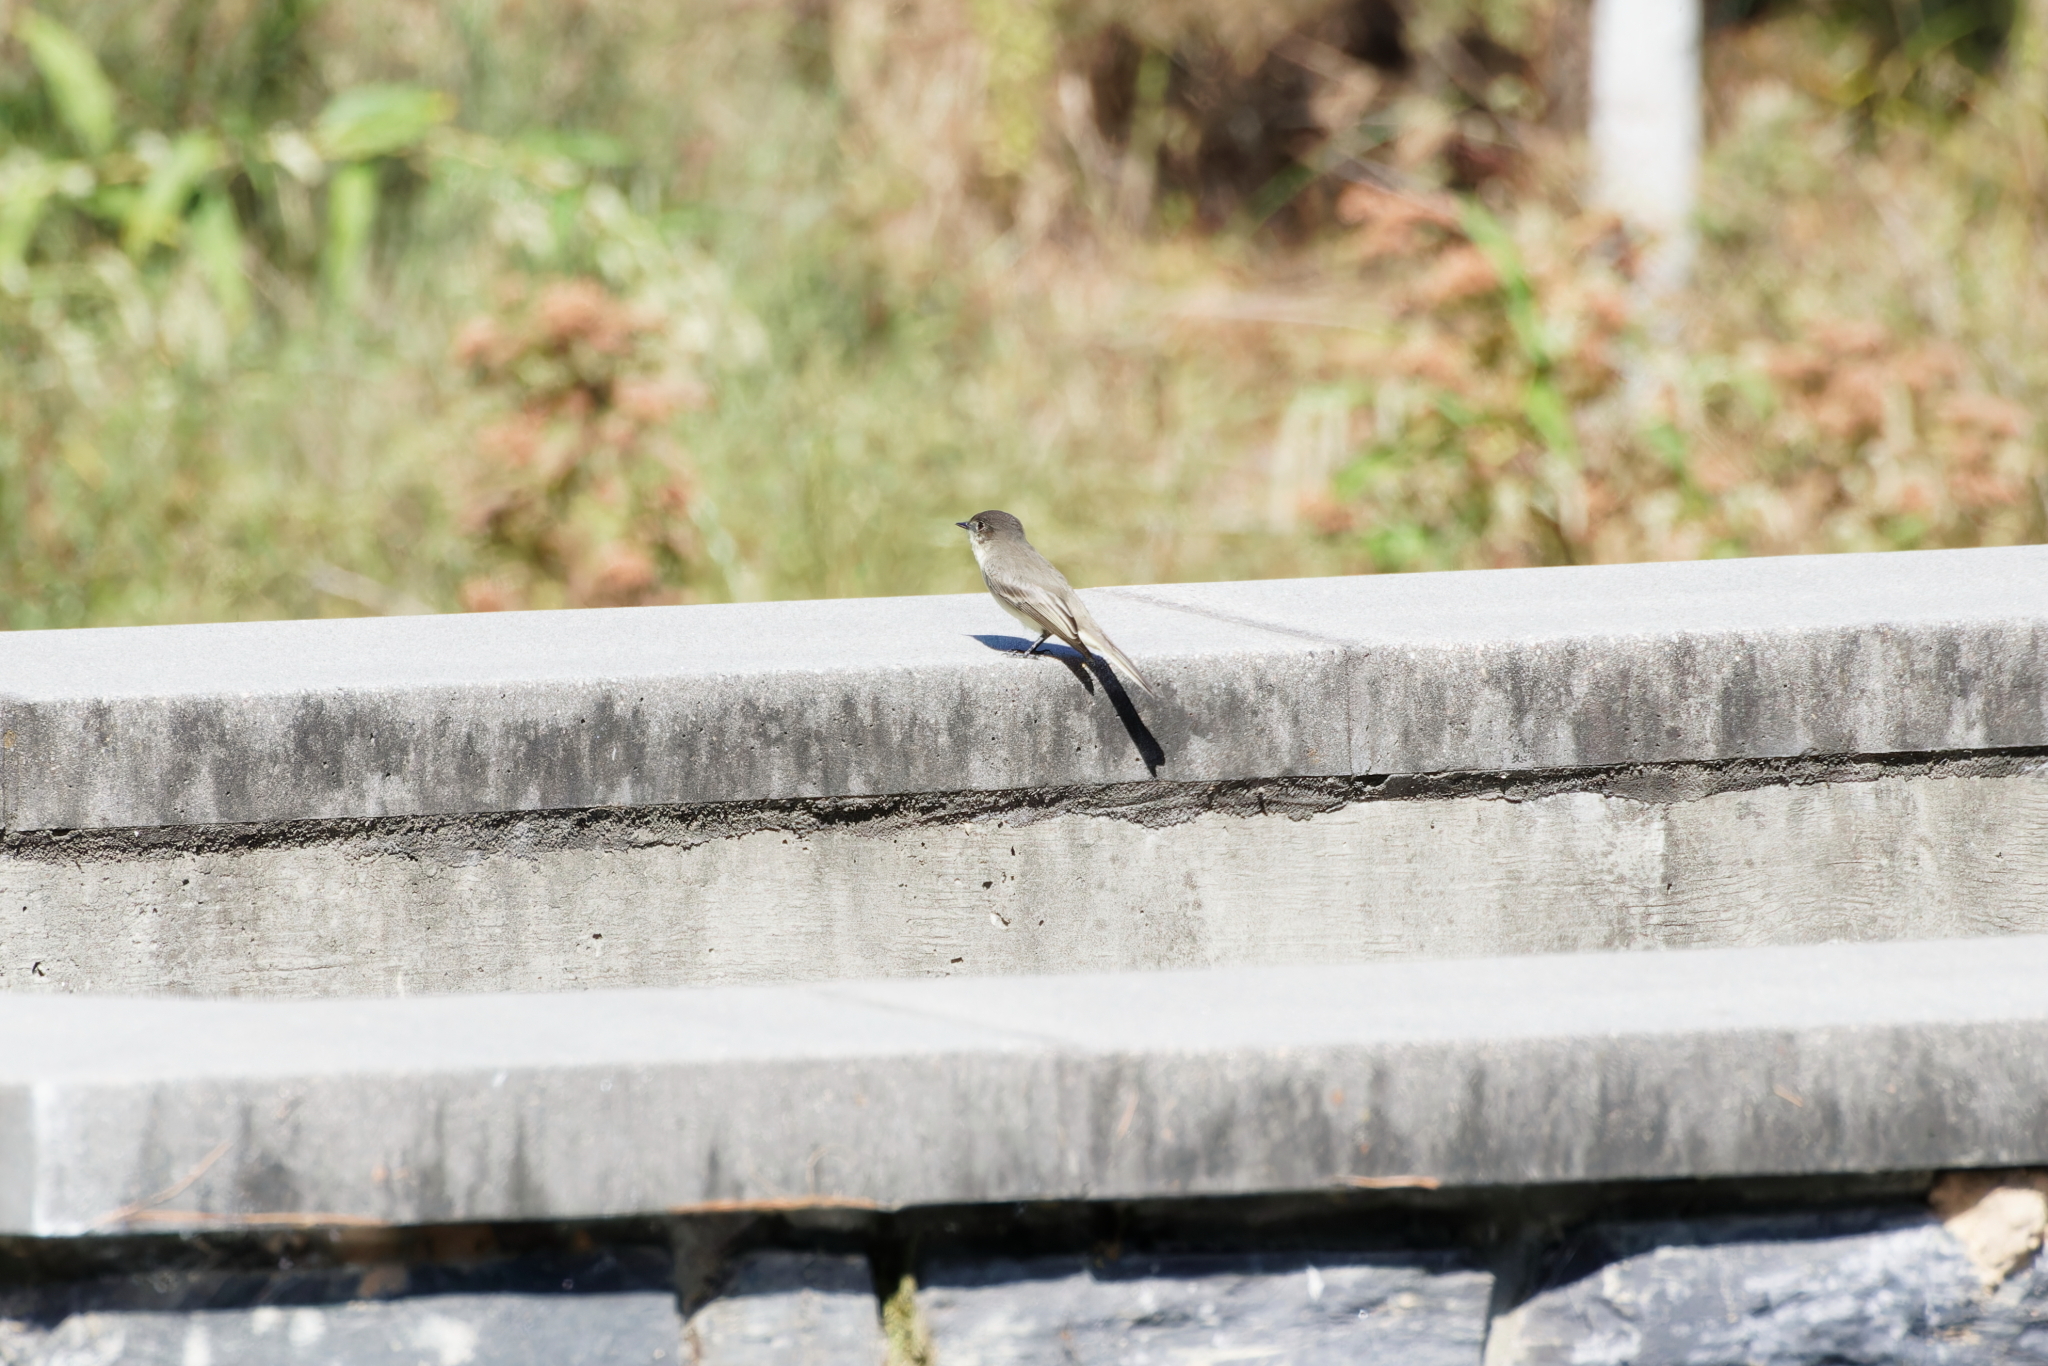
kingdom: Animalia
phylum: Chordata
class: Aves
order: Passeriformes
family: Tyrannidae
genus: Sayornis
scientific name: Sayornis phoebe
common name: Eastern phoebe
